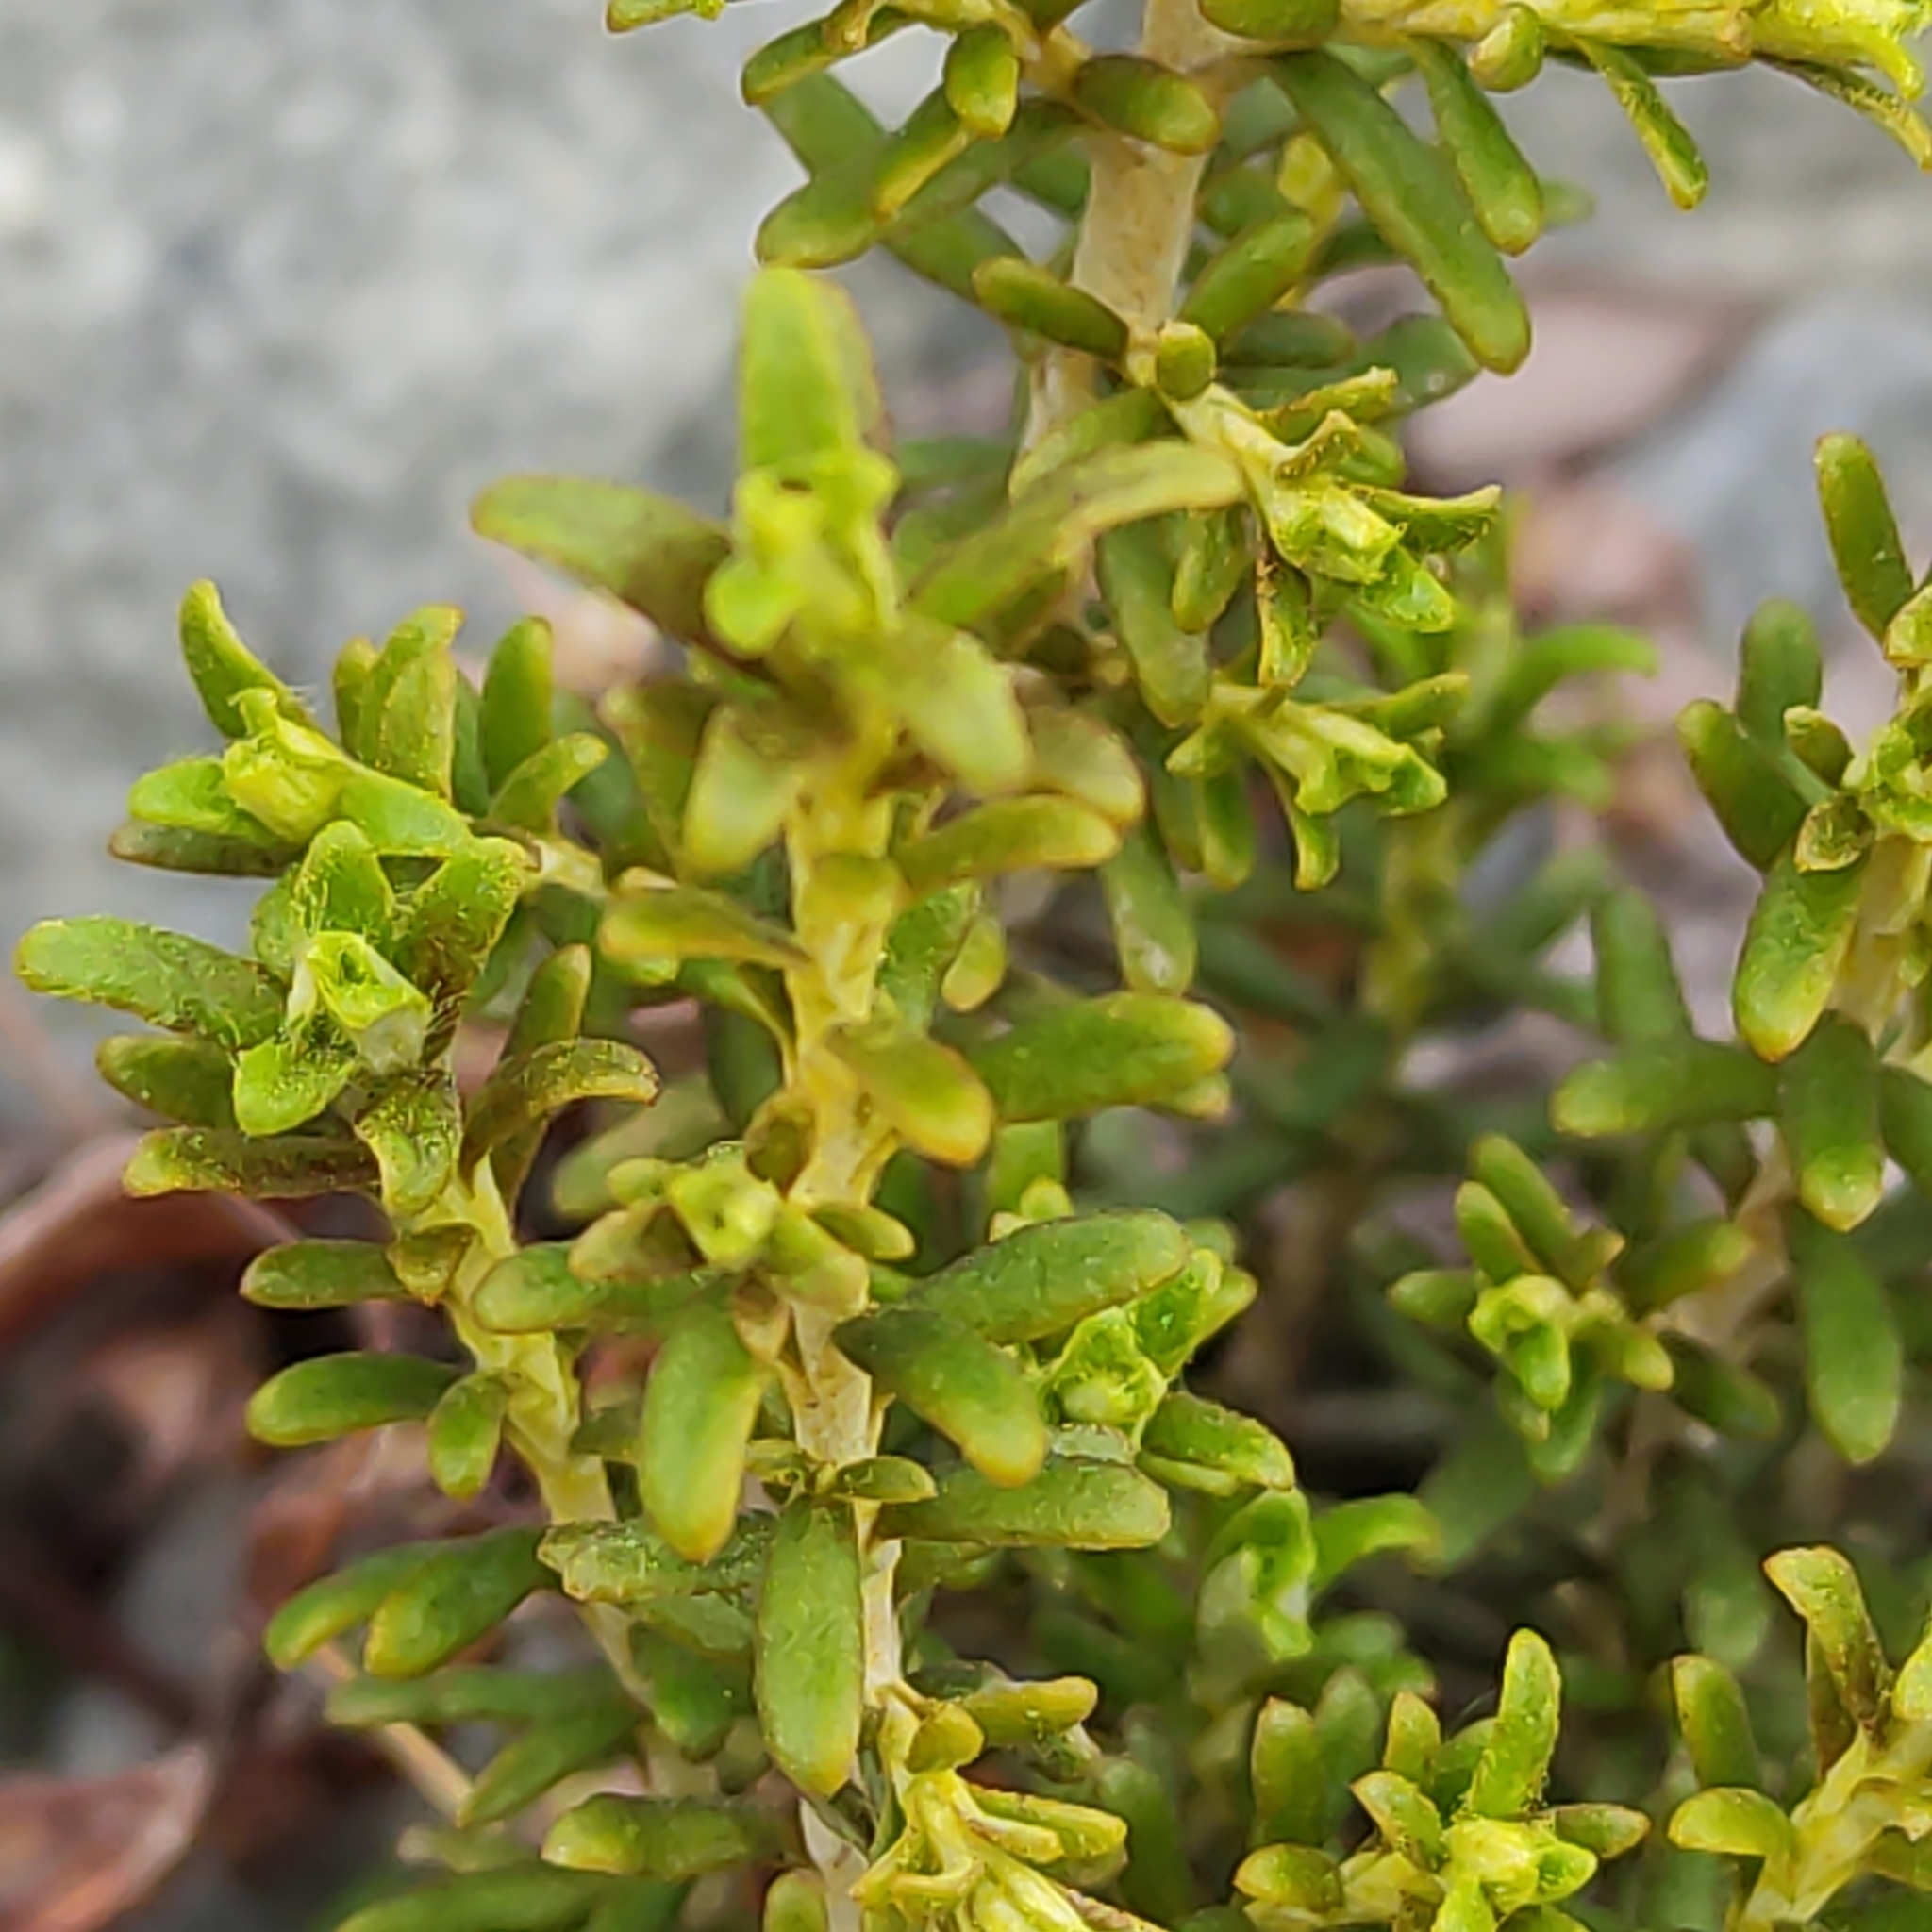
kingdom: Plantae
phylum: Tracheophyta
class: Magnoliopsida
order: Asterales
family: Asteraceae
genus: Ozothamnus
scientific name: Ozothamnus leptophyllus
